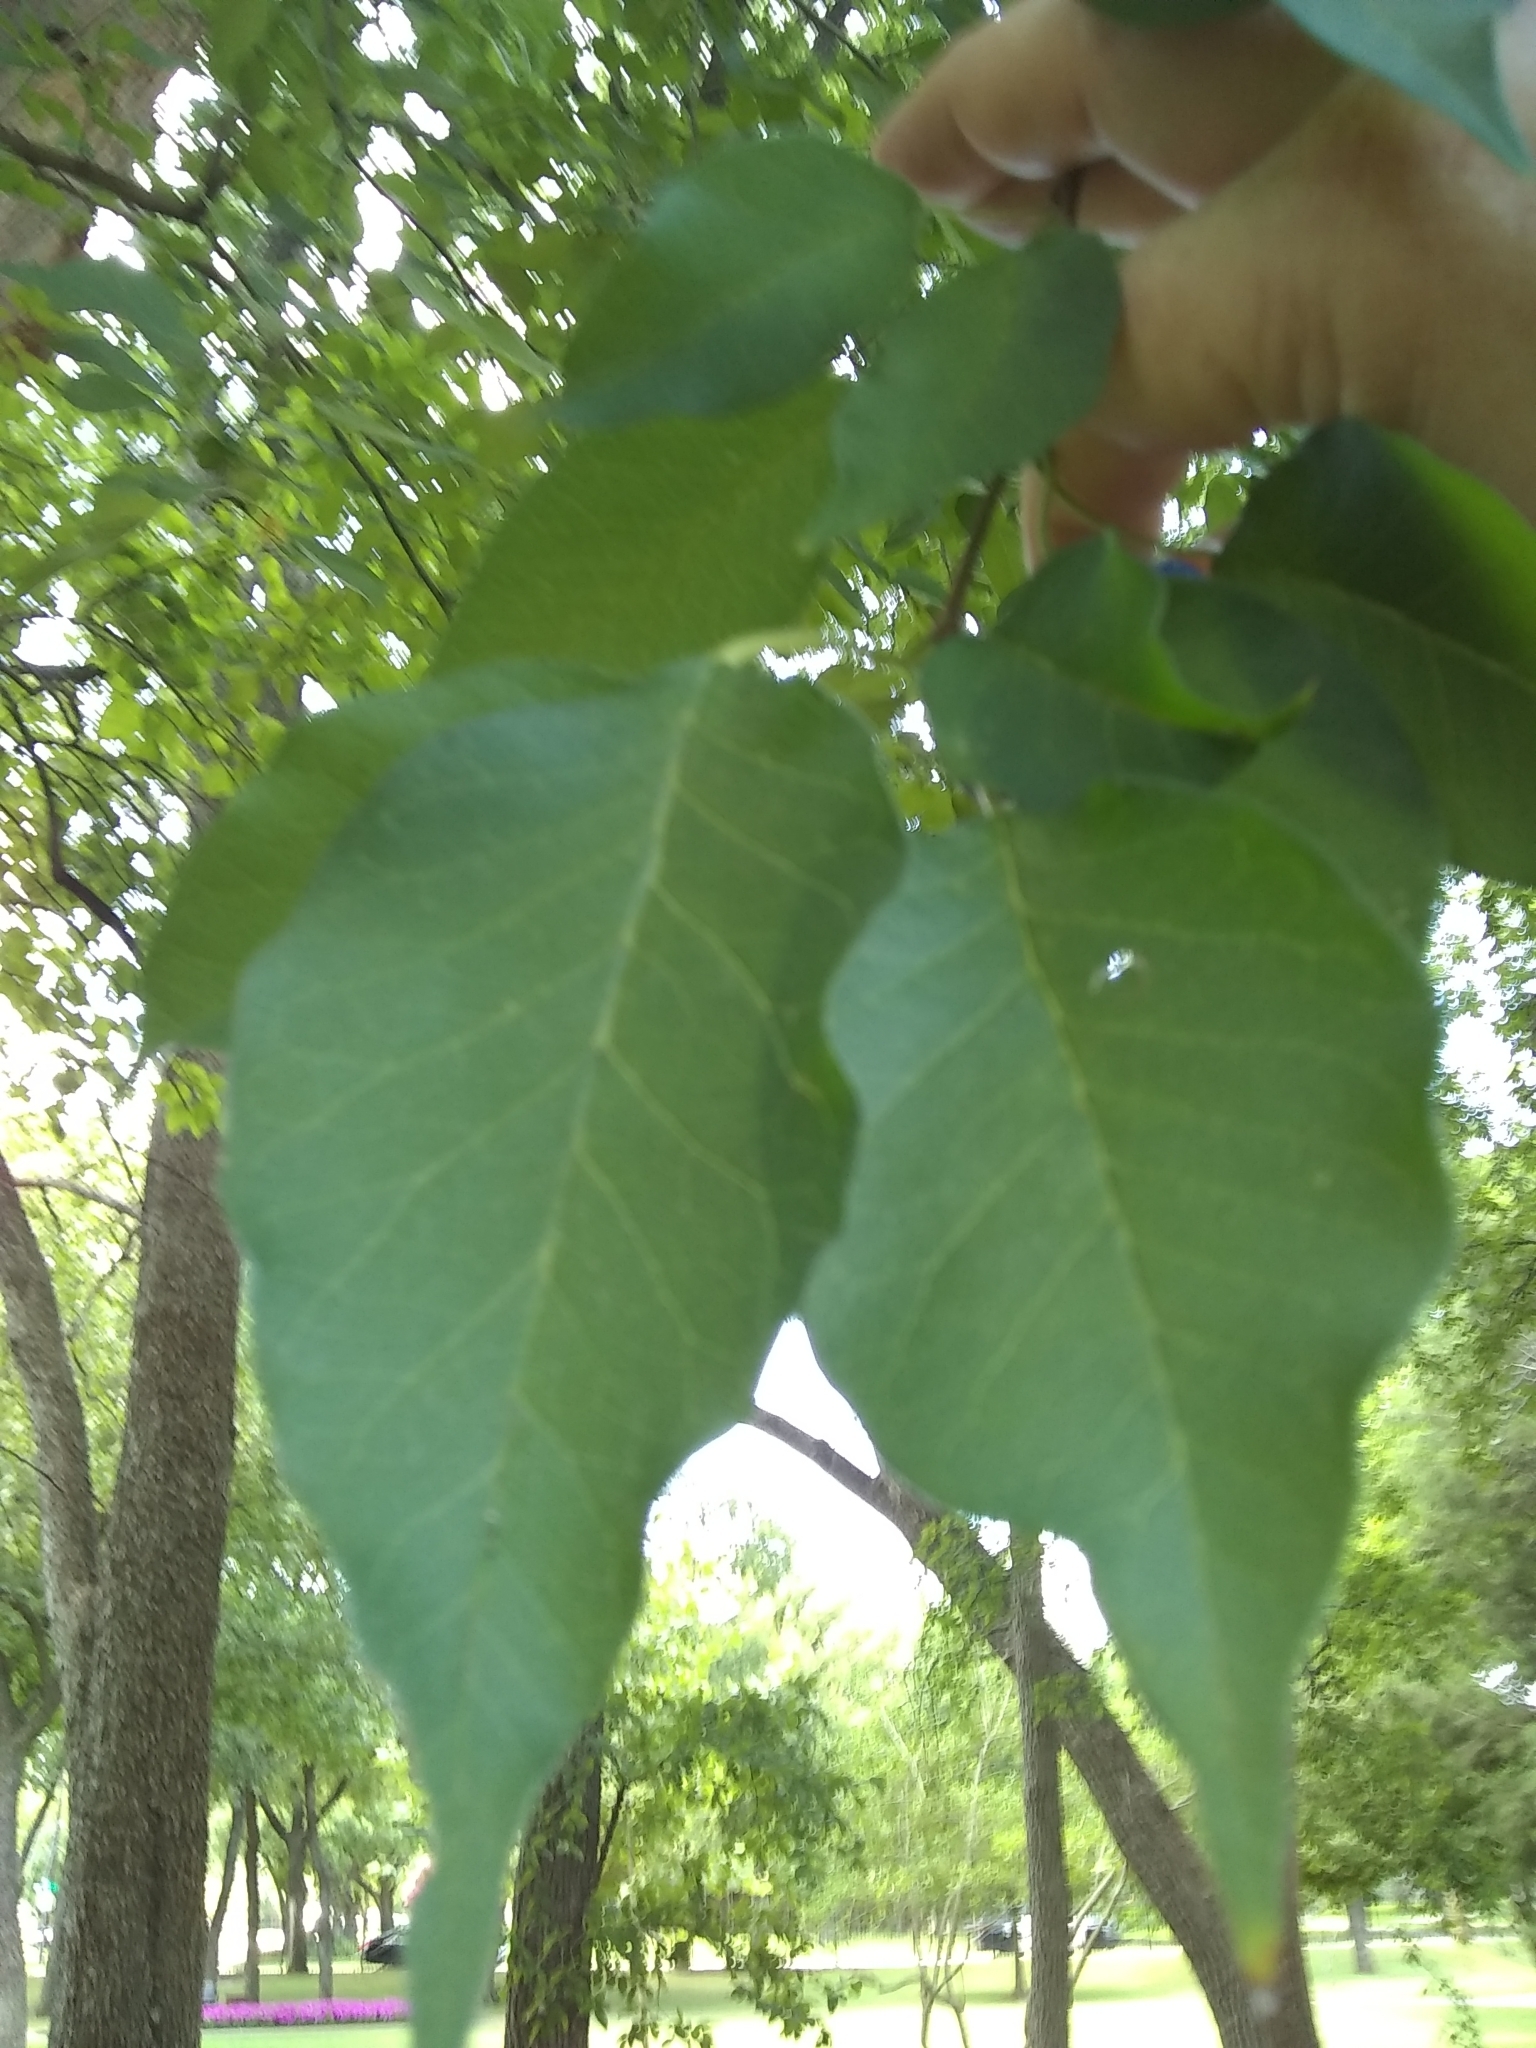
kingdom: Plantae
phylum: Tracheophyta
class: Magnoliopsida
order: Rosales
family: Moraceae
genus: Maclura
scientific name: Maclura pomifera
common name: Osage-orange
